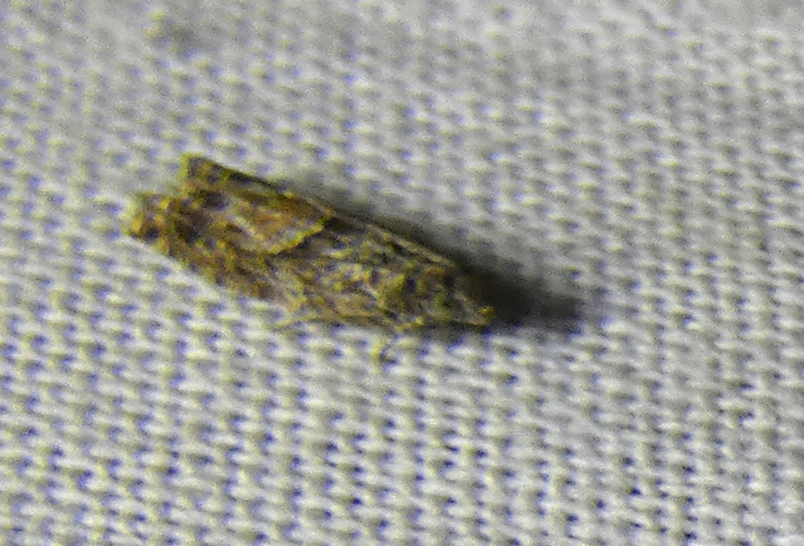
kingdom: Animalia
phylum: Arthropoda
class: Insecta
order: Lepidoptera
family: Tortricidae
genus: Epinotia
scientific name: Epinotia nisella
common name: Grey poplar bell
